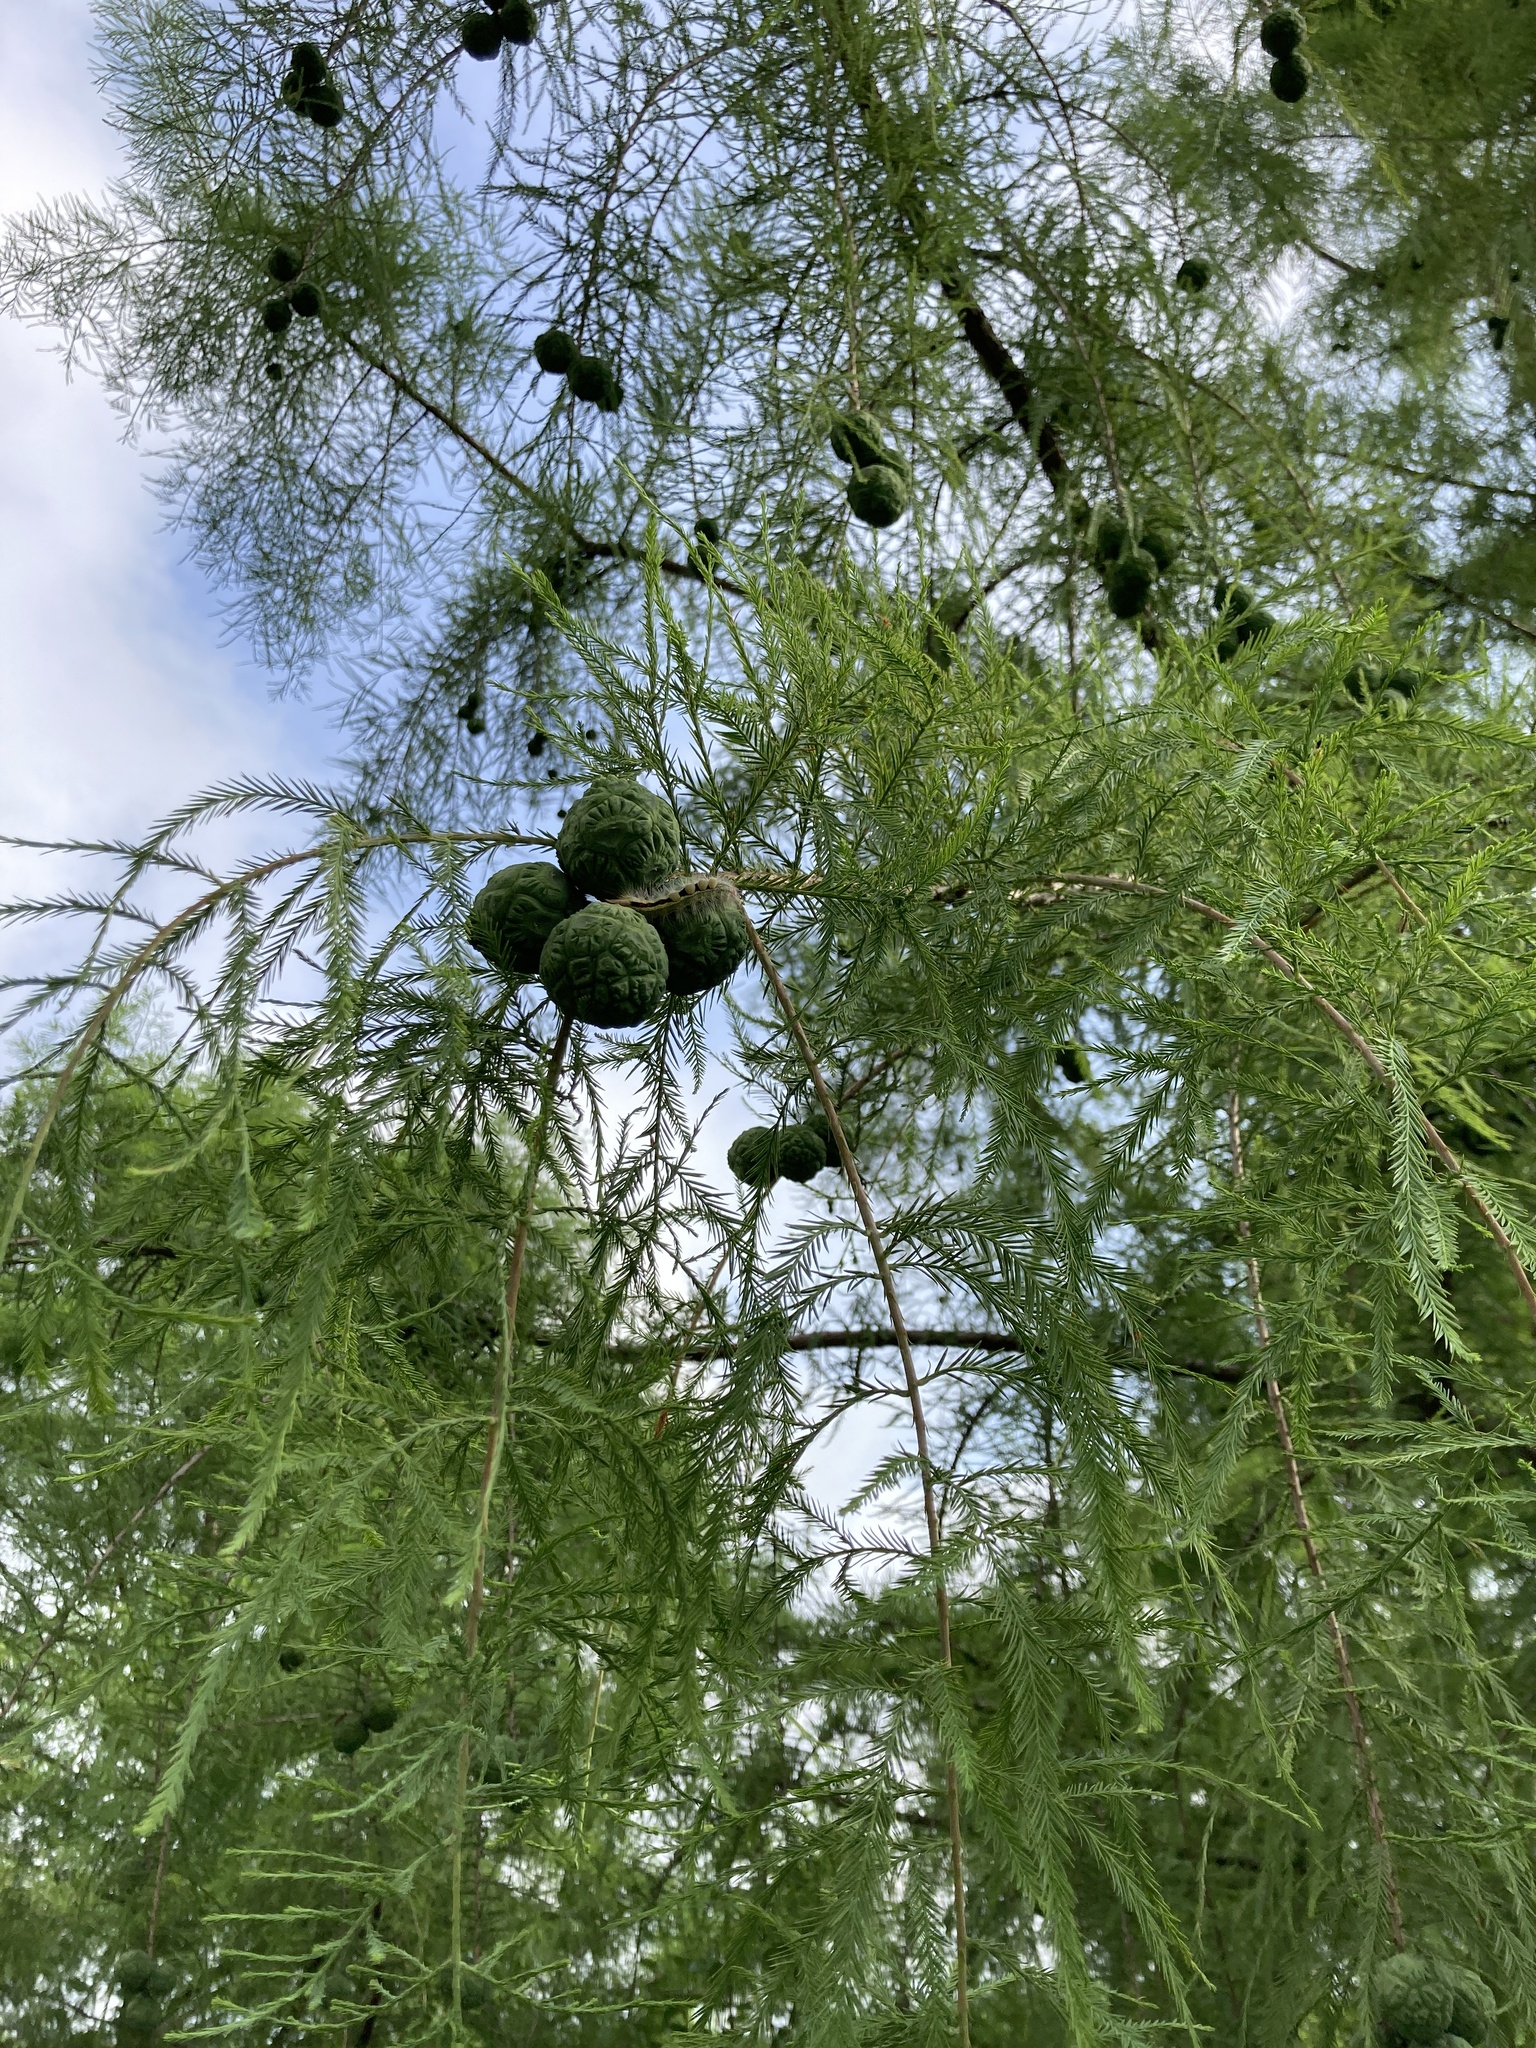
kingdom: Plantae
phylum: Tracheophyta
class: Pinopsida
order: Pinales
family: Cupressaceae
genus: Taxodium
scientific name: Taxodium distichum
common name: Bald cypress
